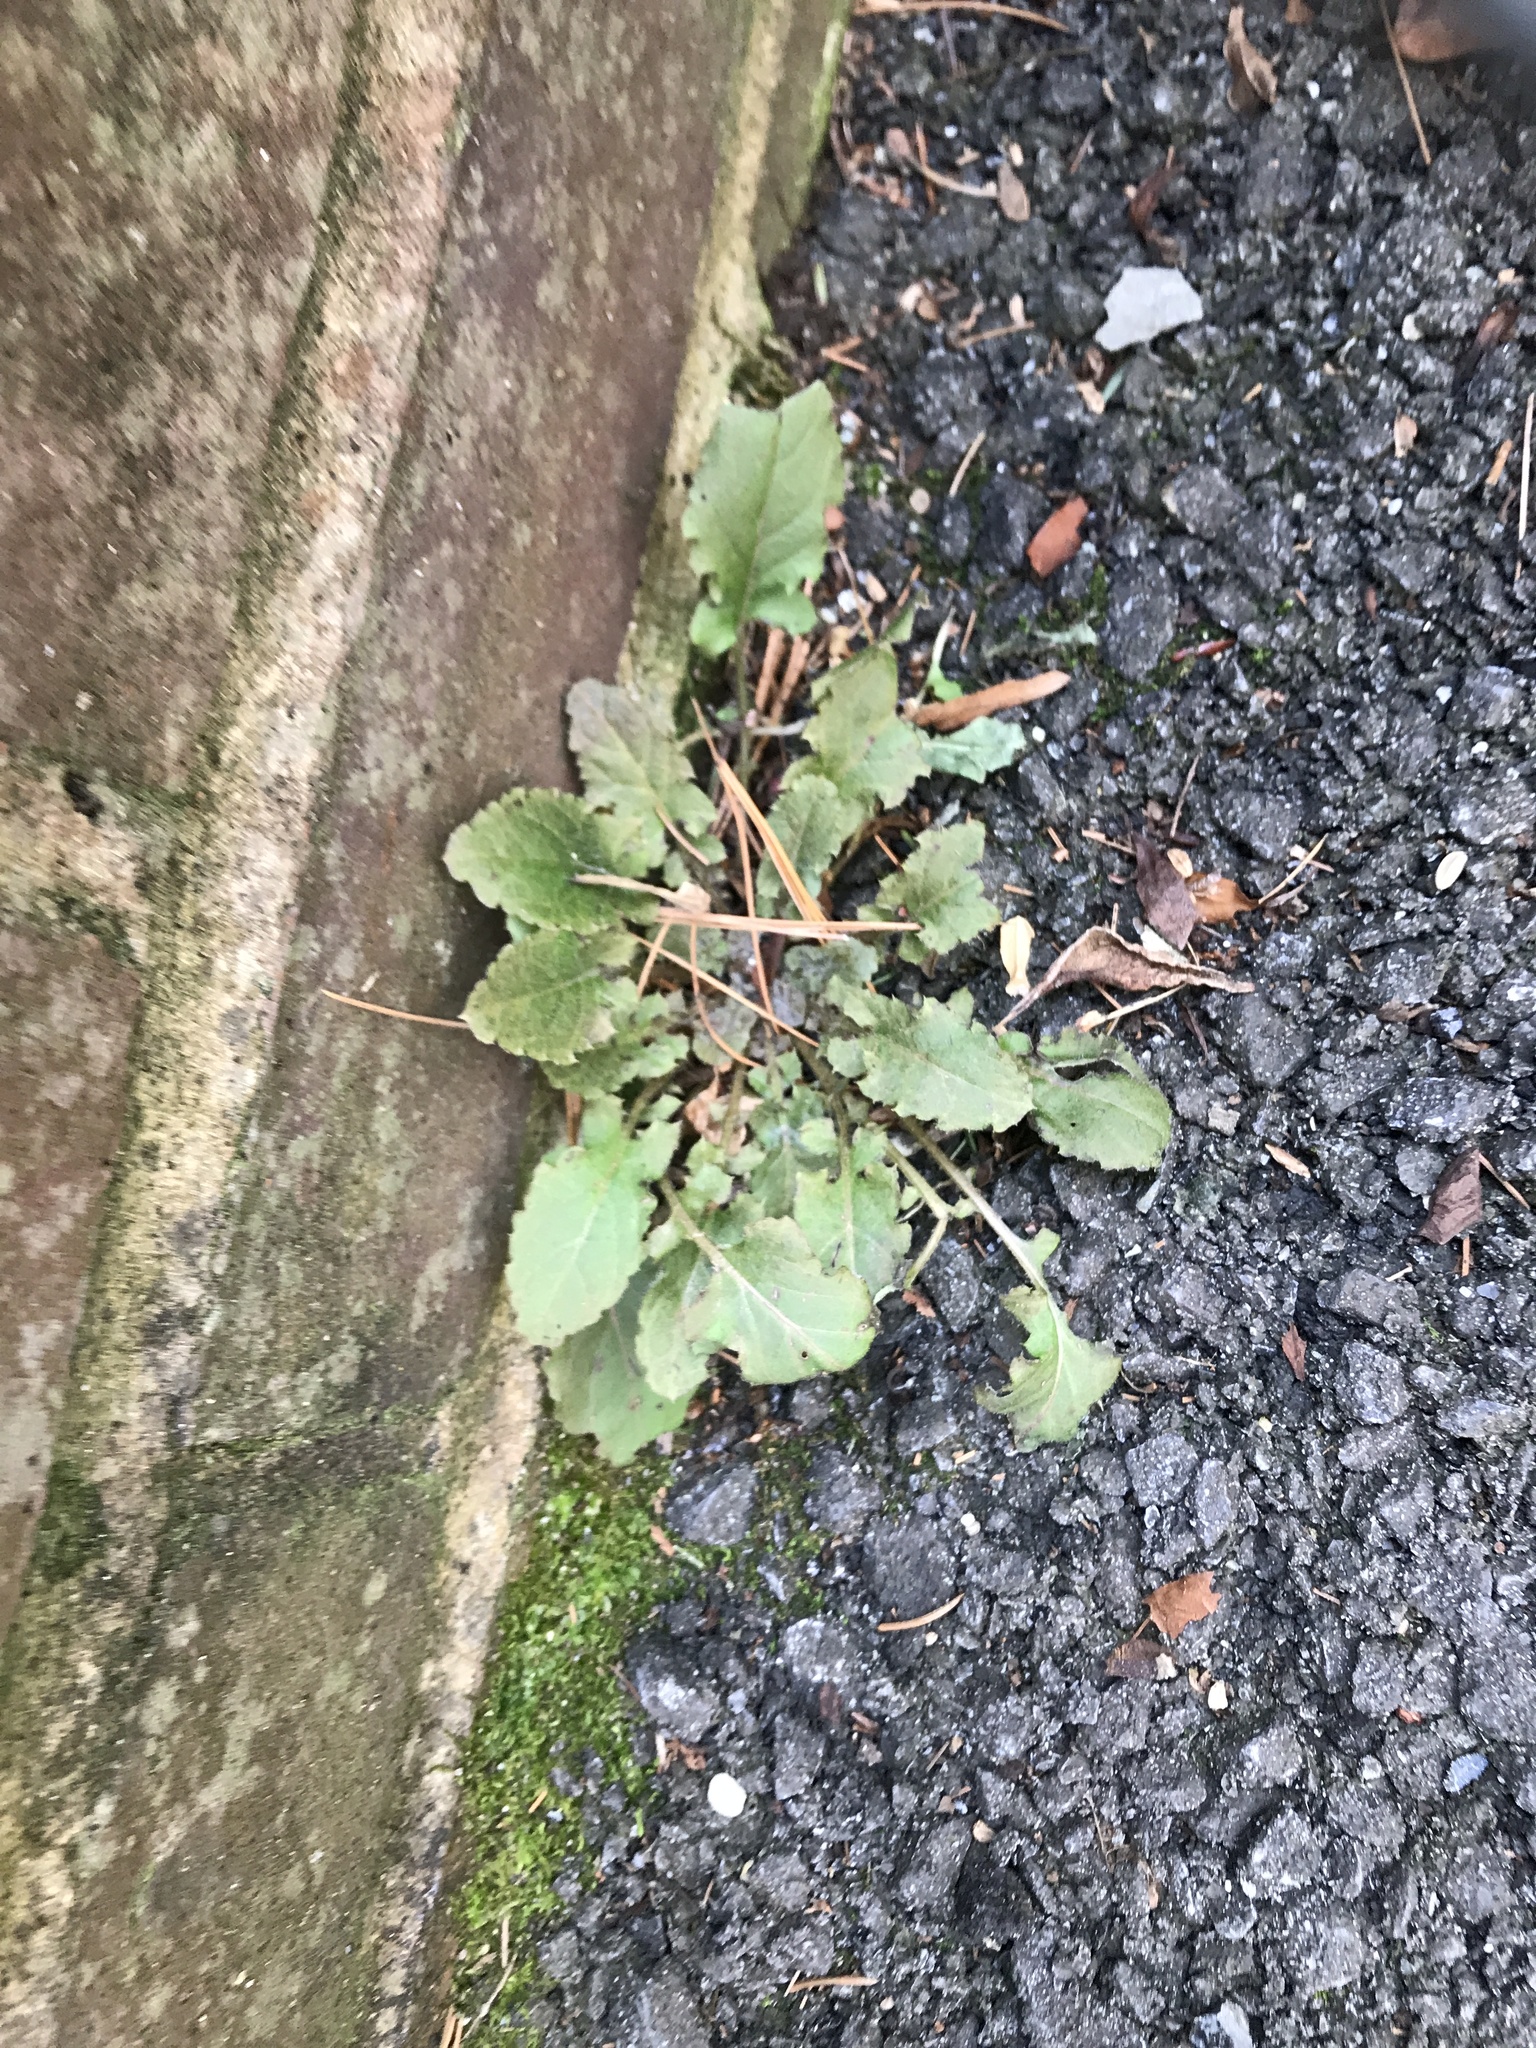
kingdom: Plantae
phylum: Tracheophyta
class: Magnoliopsida
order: Asterales
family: Asteraceae
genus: Youngia
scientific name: Youngia japonica
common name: Oriental false hawksbeard
